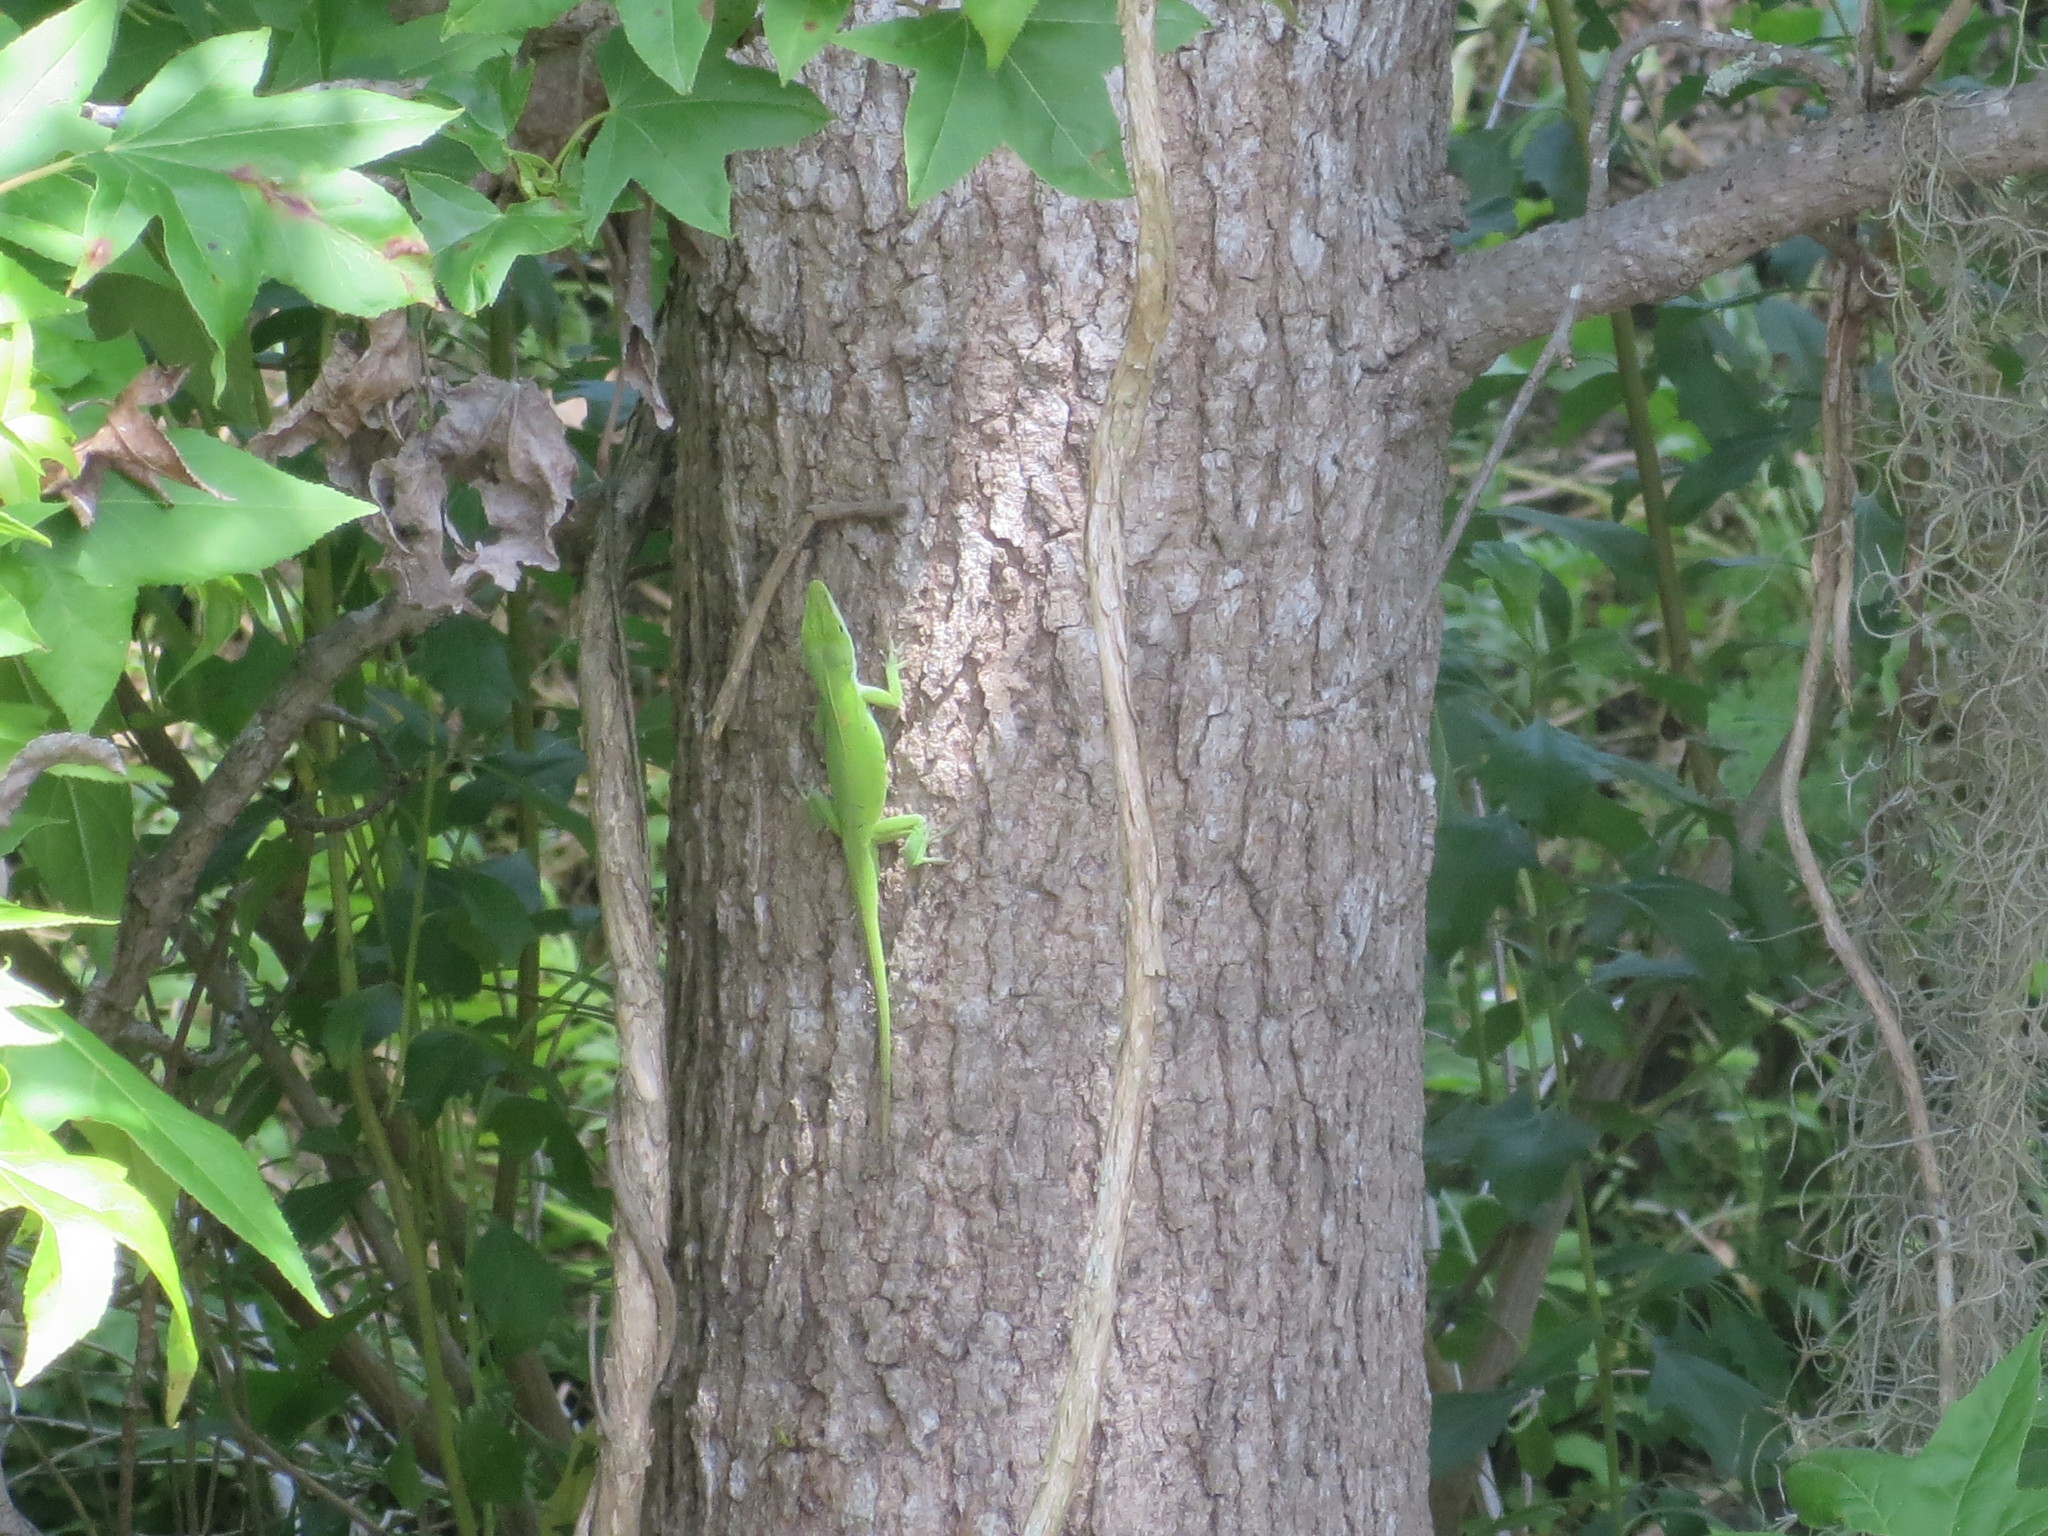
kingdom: Plantae
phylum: Tracheophyta
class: Magnoliopsida
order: Saxifragales
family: Altingiaceae
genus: Liquidambar
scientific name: Liquidambar styraciflua
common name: Sweet gum
